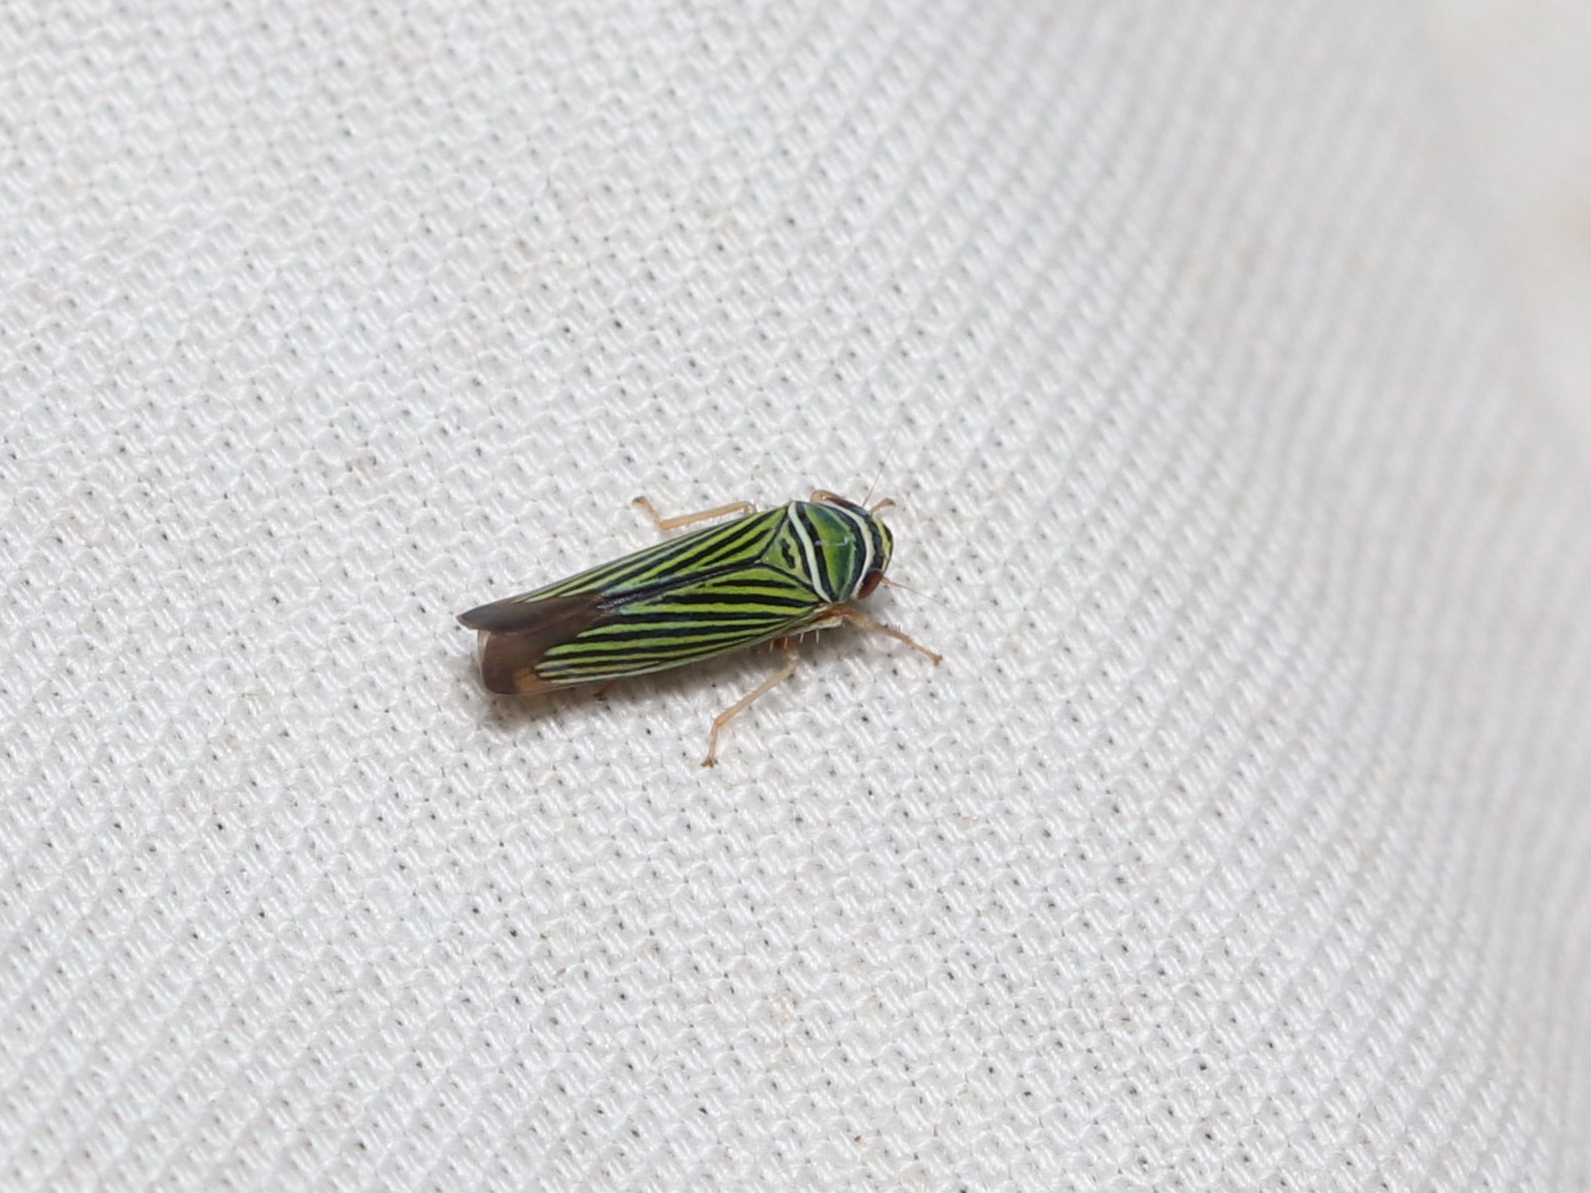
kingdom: Animalia
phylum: Arthropoda
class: Insecta
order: Hemiptera
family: Cicadellidae
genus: Tylozygus
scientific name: Tylozygus bifidus
